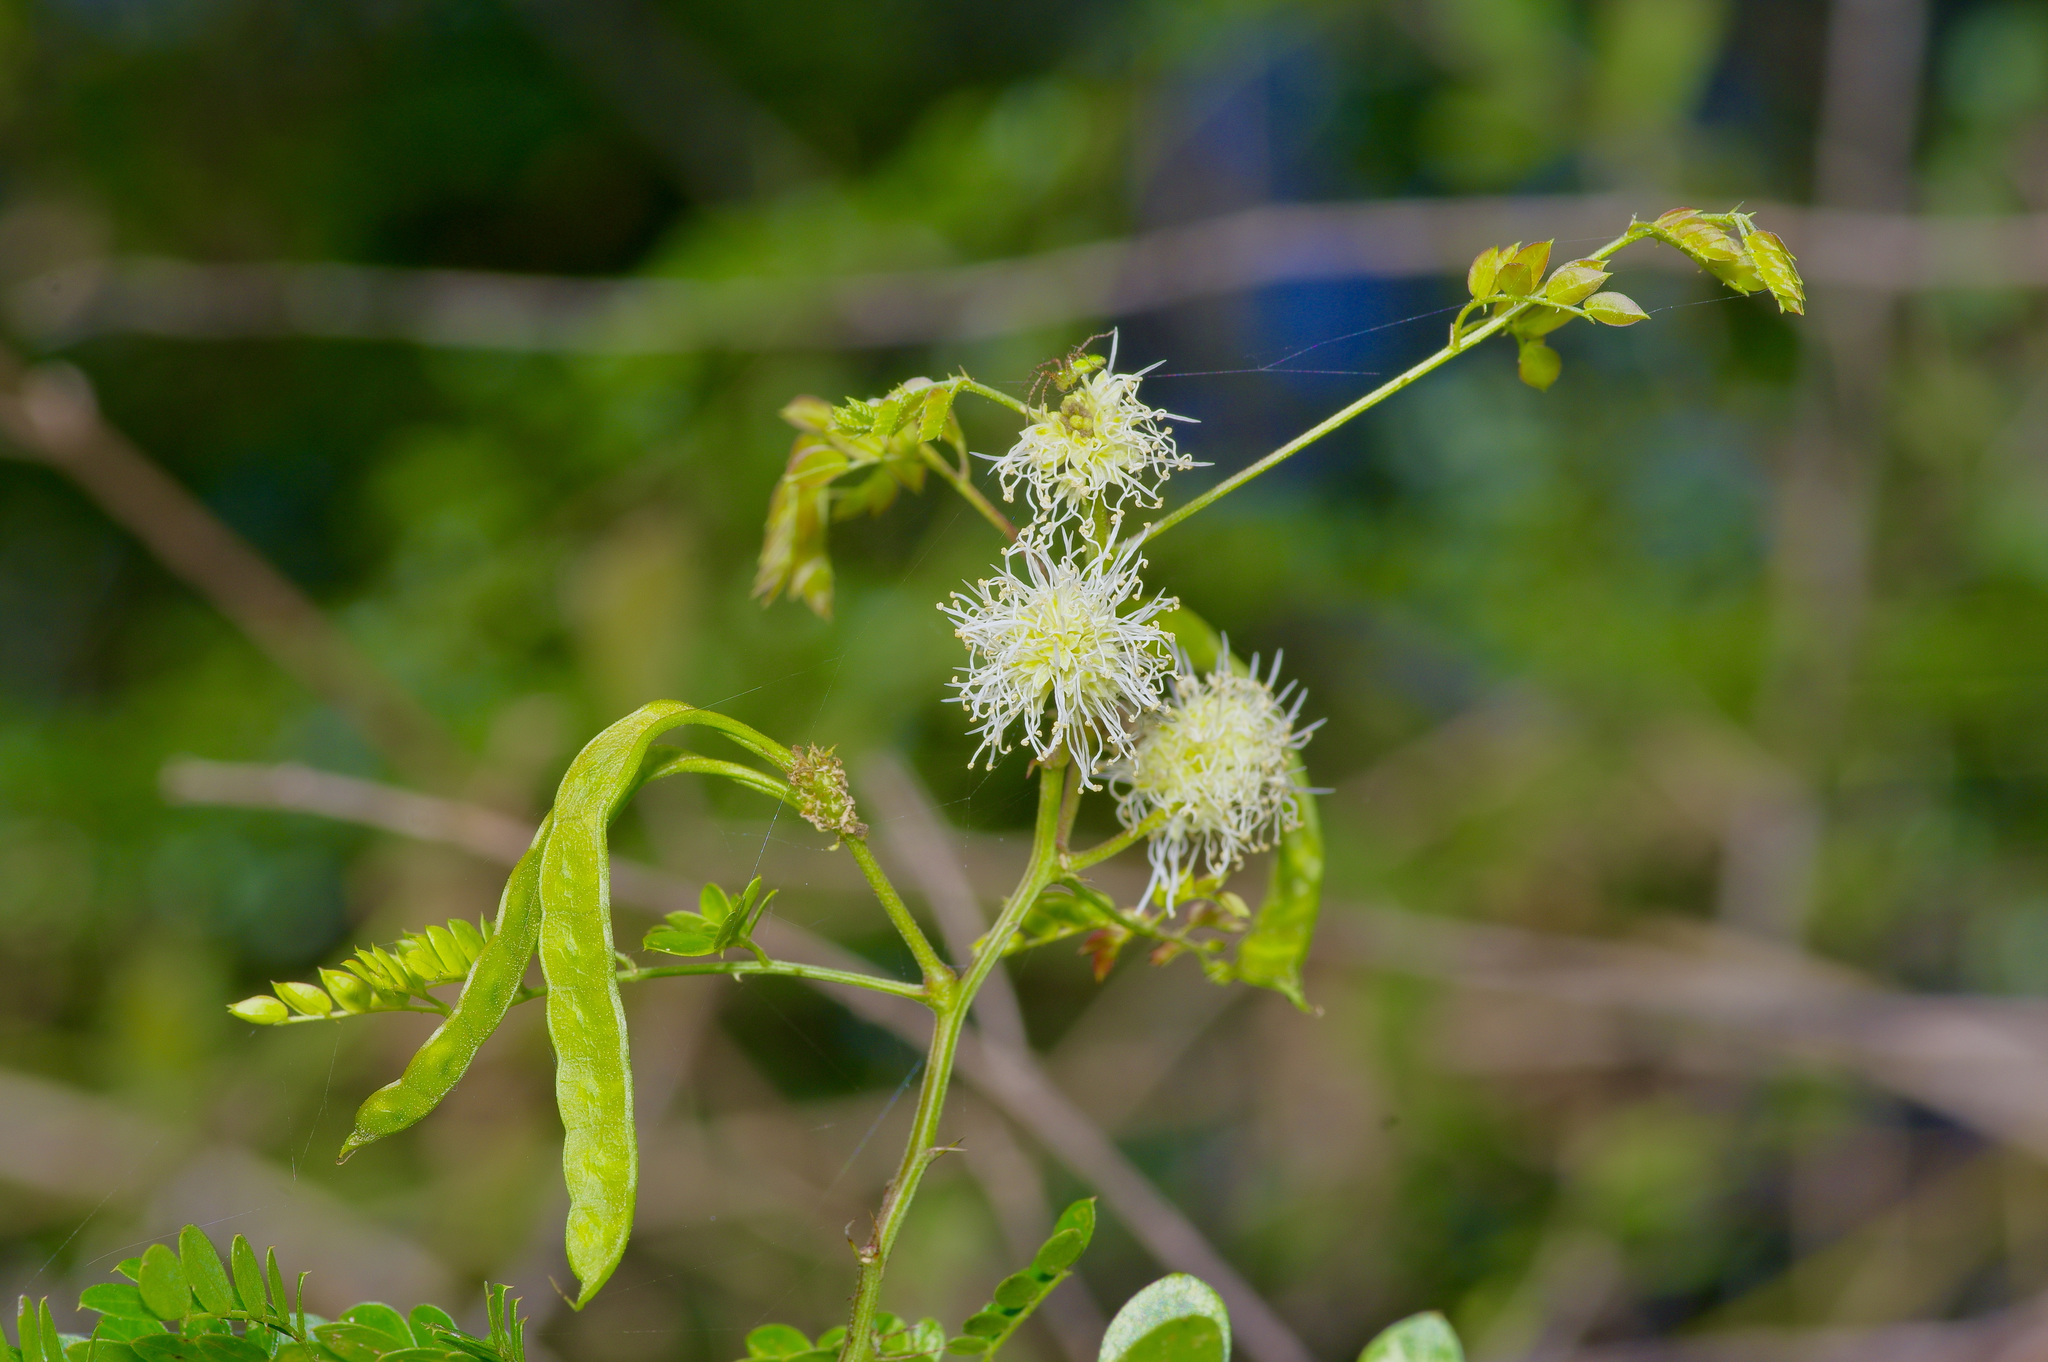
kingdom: Plantae
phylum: Tracheophyta
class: Magnoliopsida
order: Fabales
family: Fabaceae
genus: Mimosa
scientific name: Mimosa malacophylla
